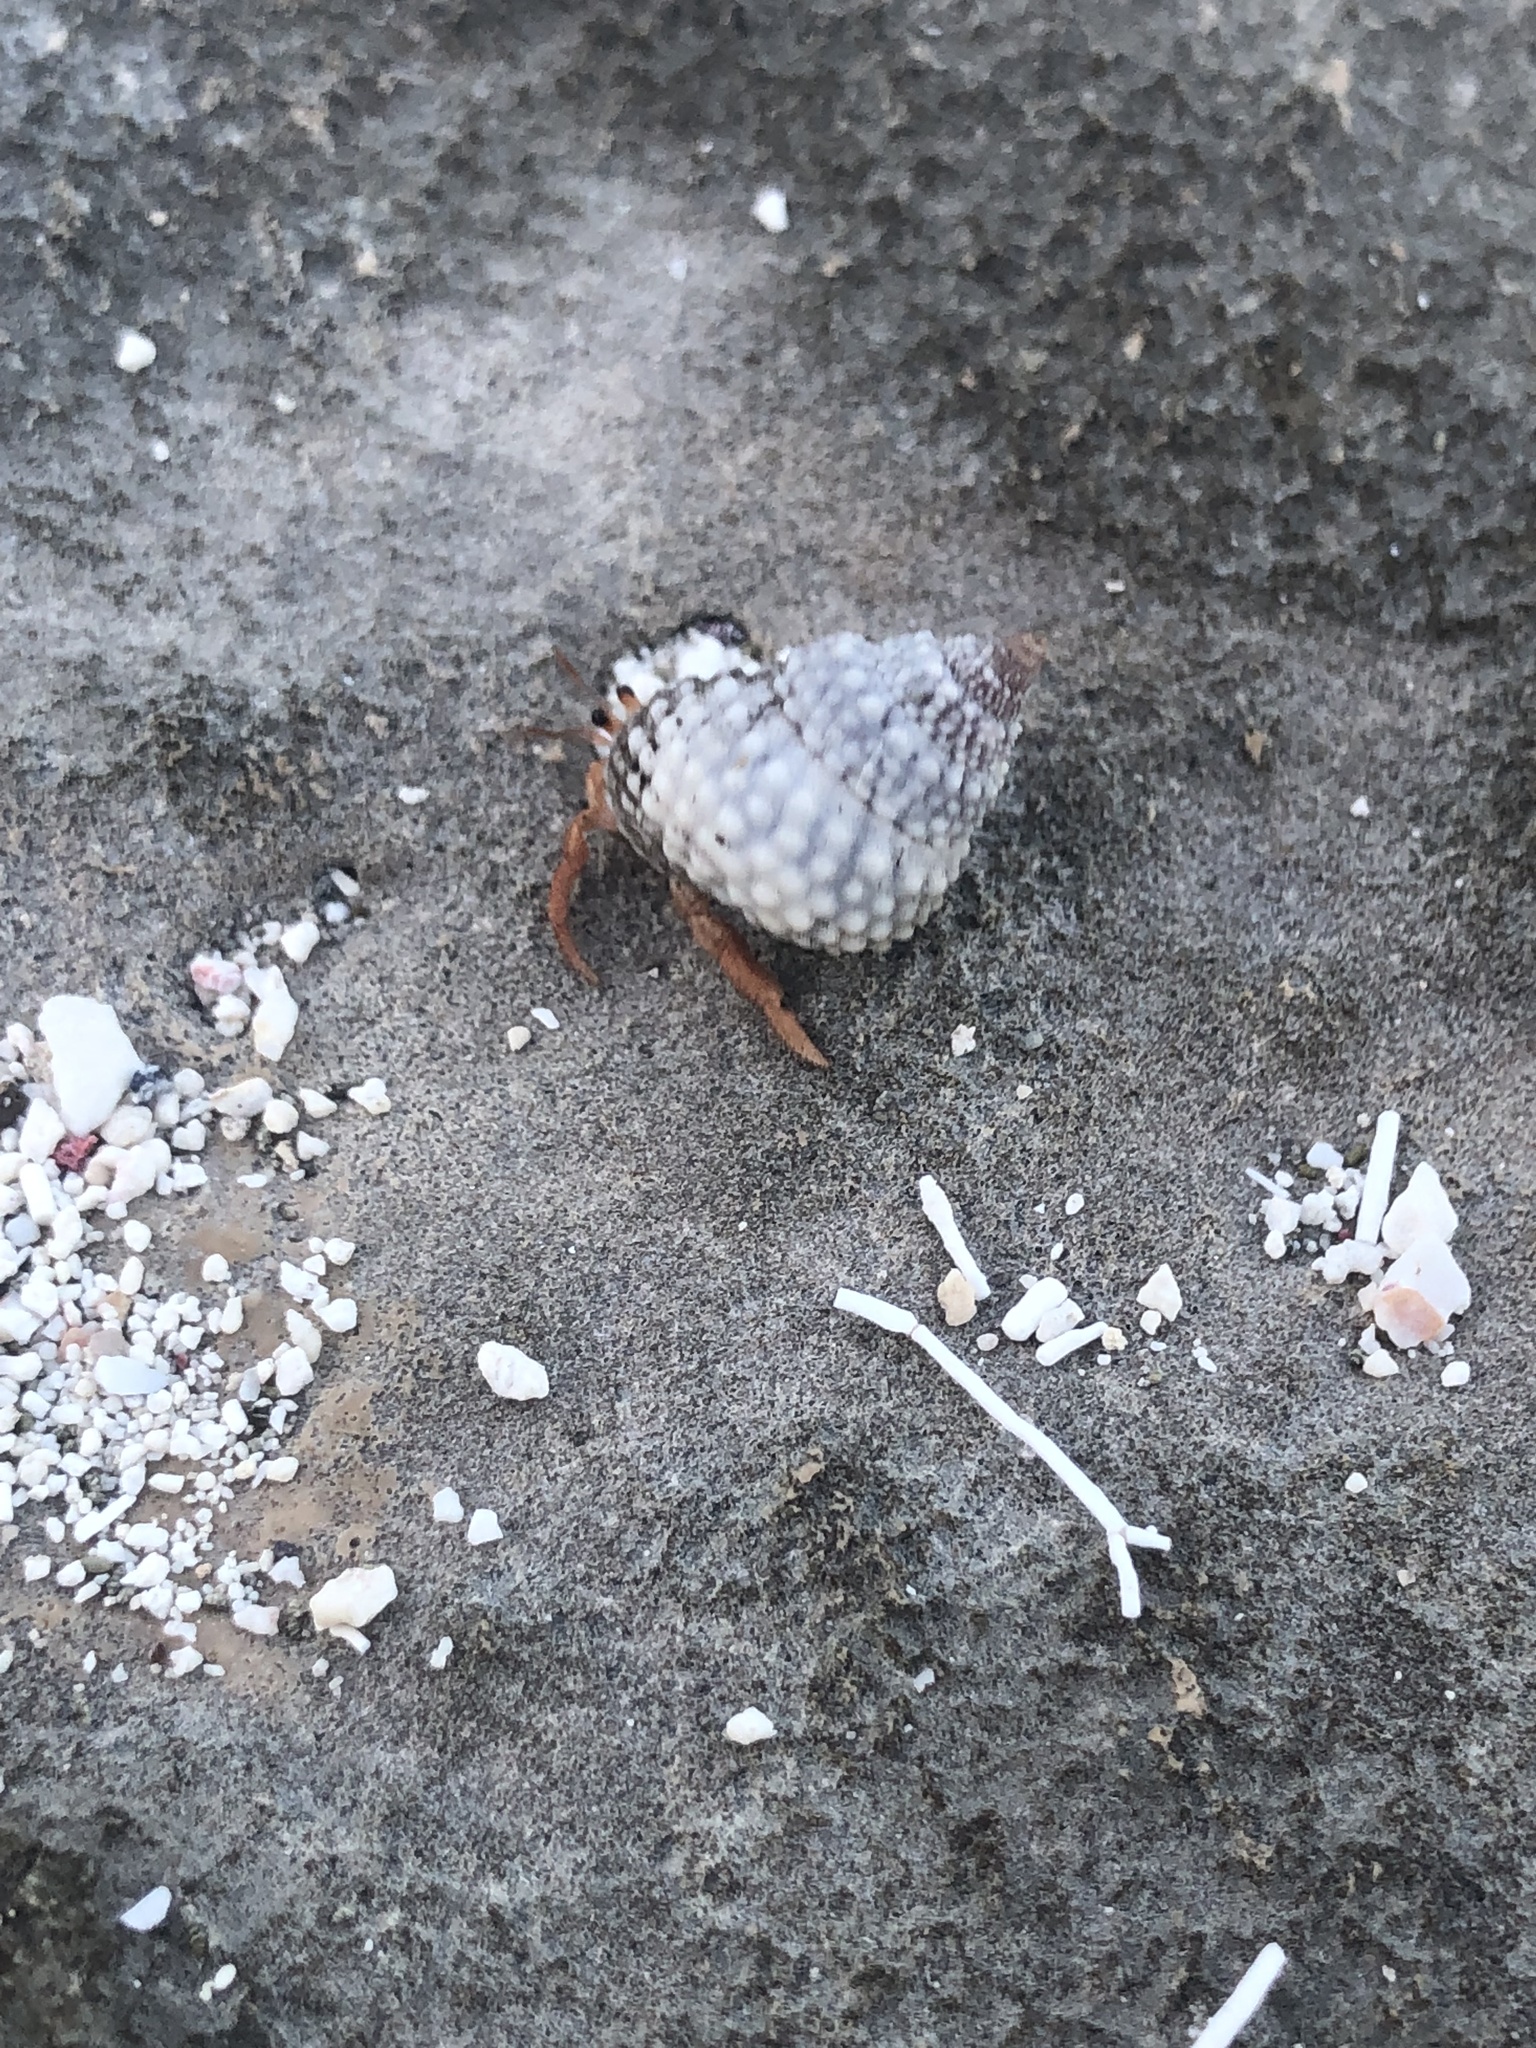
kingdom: Animalia
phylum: Arthropoda
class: Malacostraca
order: Decapoda
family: Coenobitidae
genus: Coenobita
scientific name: Coenobita clypeatus
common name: Caribbean hermit crab
